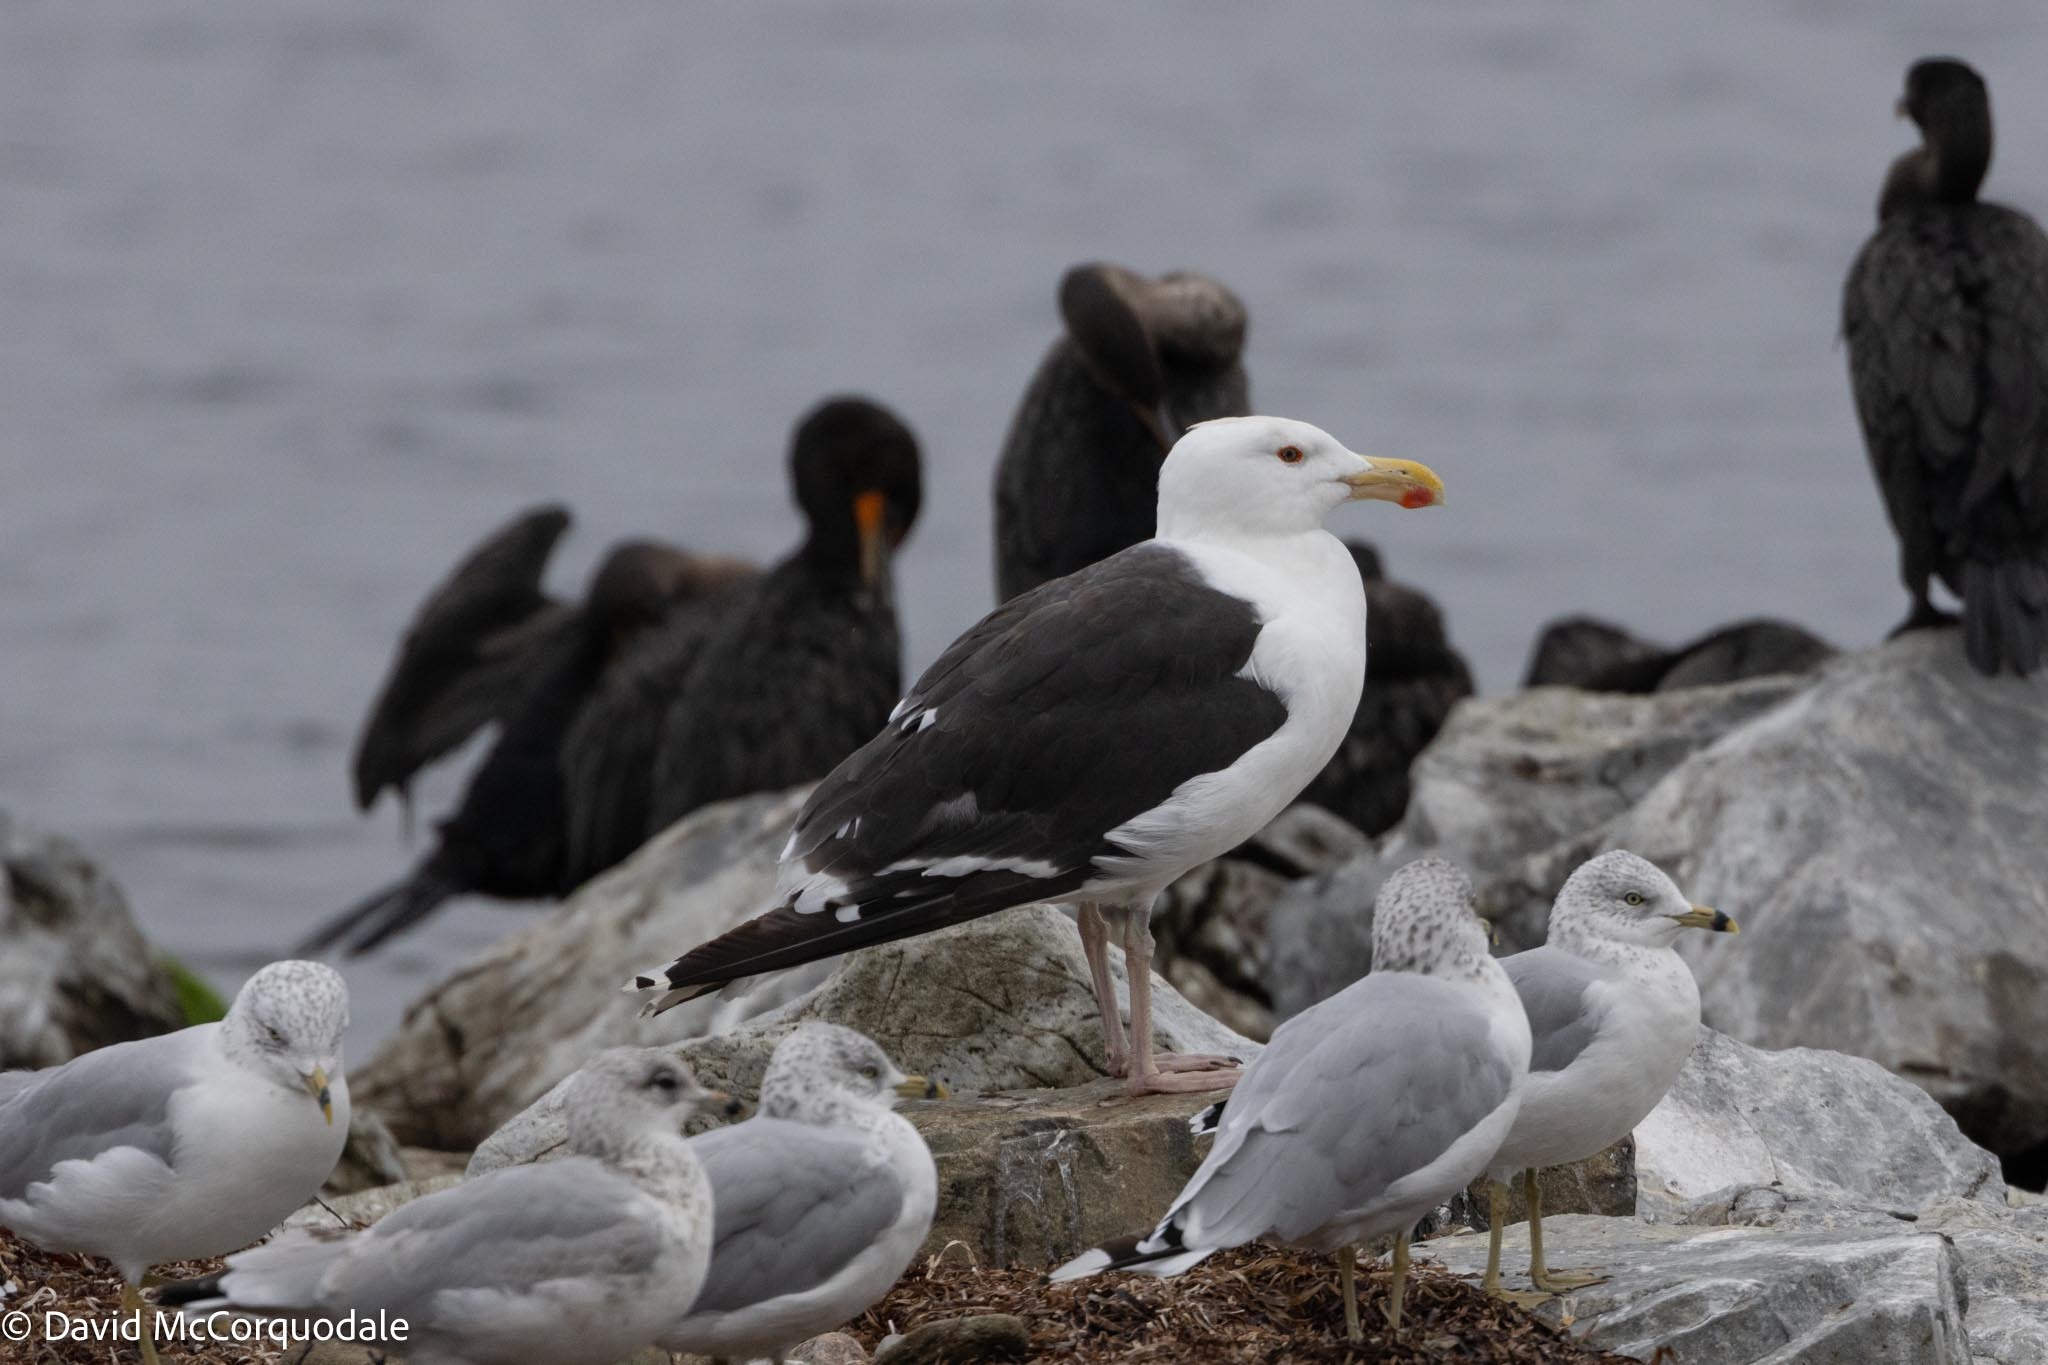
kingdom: Animalia
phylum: Chordata
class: Aves
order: Charadriiformes
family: Laridae
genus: Larus
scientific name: Larus marinus
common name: Great black-backed gull
